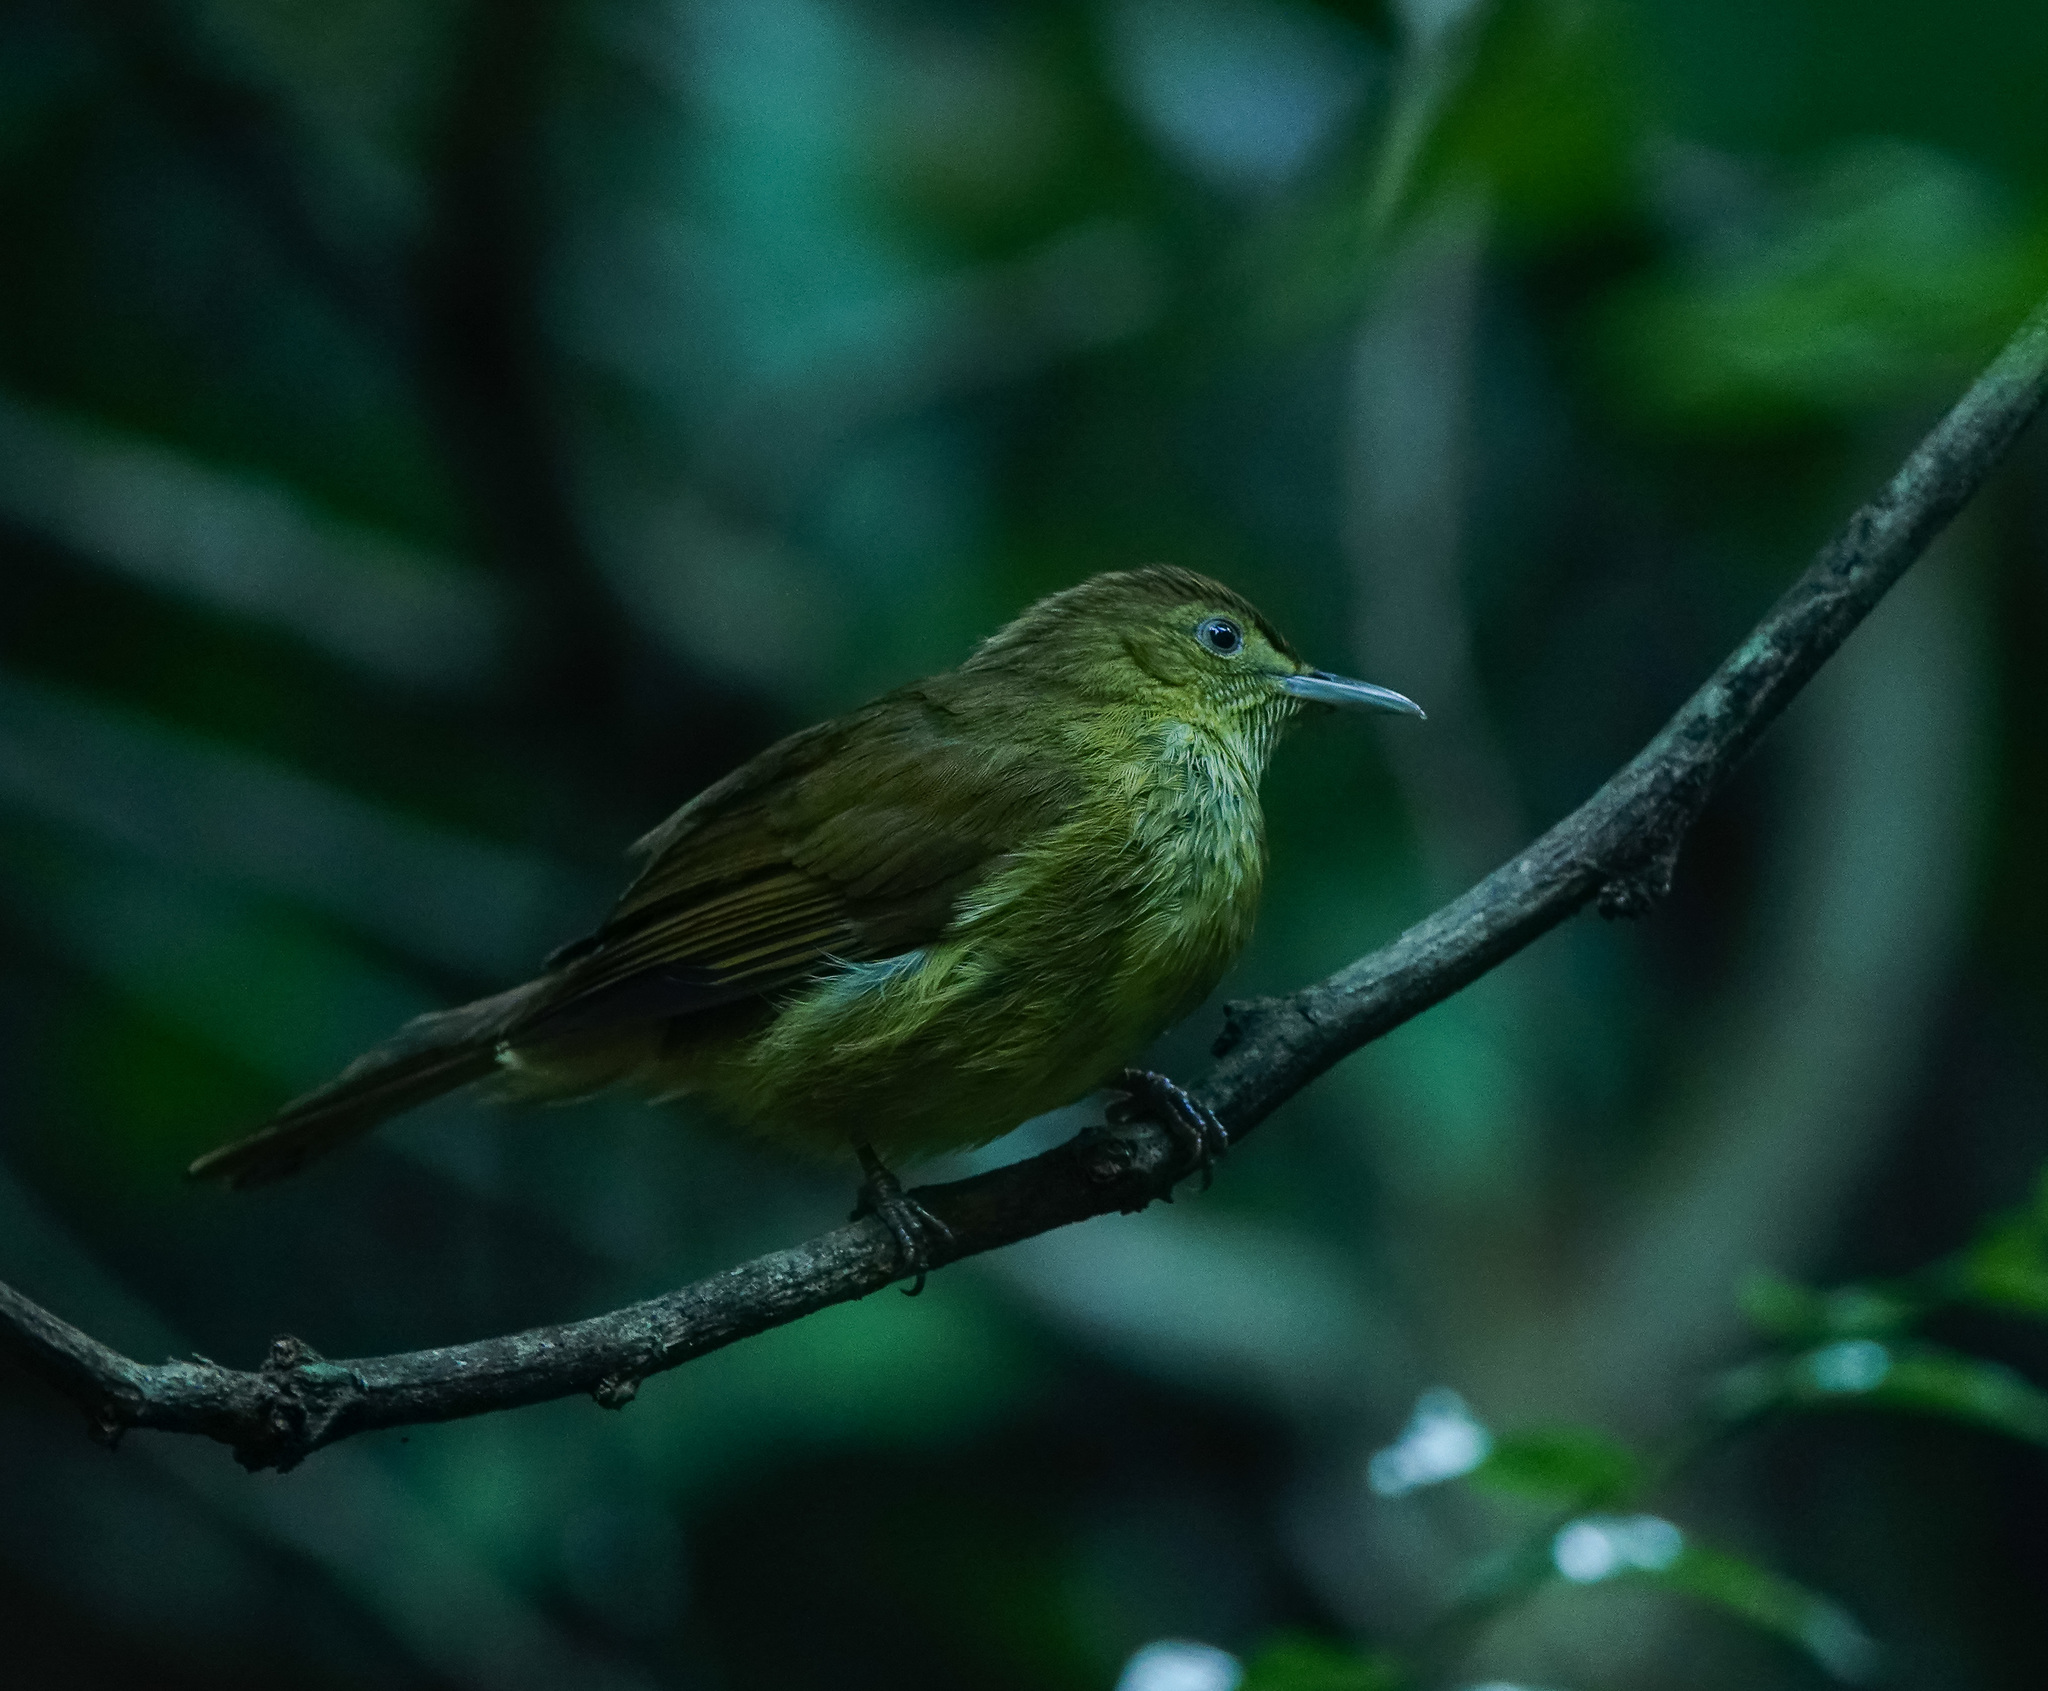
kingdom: Animalia
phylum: Chordata
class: Aves
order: Passeriformes
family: Pycnonotidae
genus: Iole
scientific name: Iole virescens
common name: Olive bulbul
